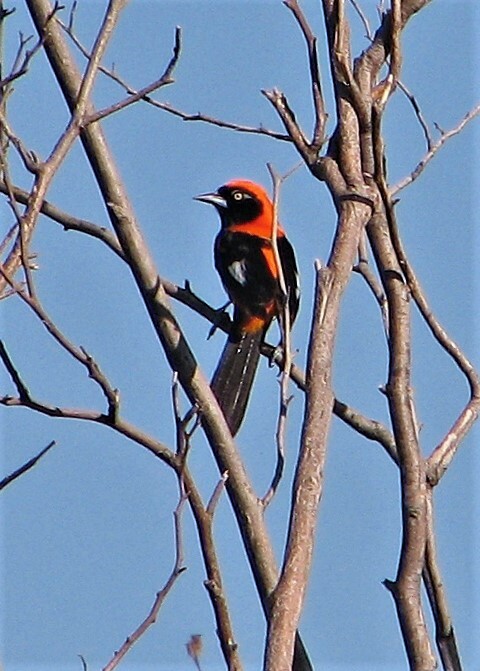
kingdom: Animalia
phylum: Chordata
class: Aves
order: Passeriformes
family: Icteridae
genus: Icterus
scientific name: Icterus icterus
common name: Venezuelan troupial
